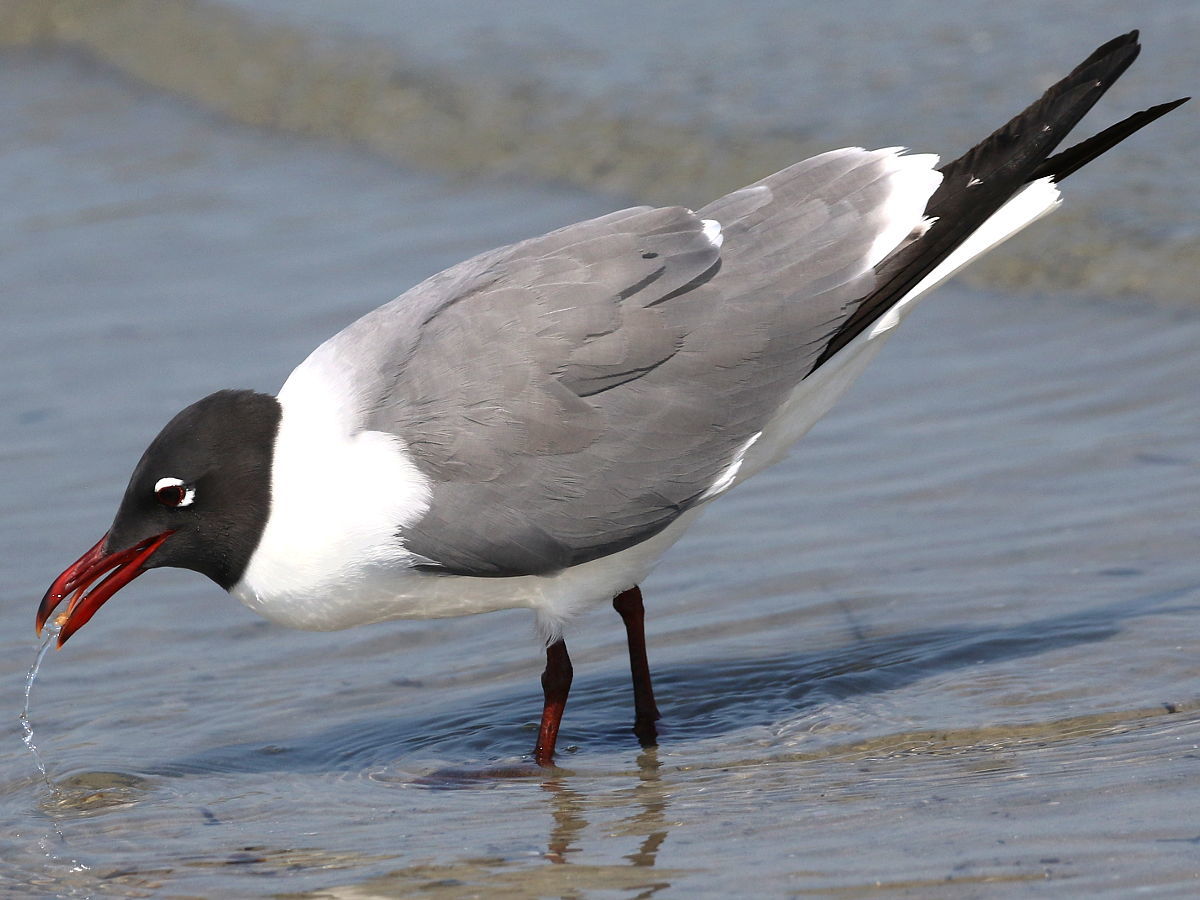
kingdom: Animalia
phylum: Chordata
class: Aves
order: Charadriiformes
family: Laridae
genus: Leucophaeus
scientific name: Leucophaeus atricilla
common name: Laughing gull
